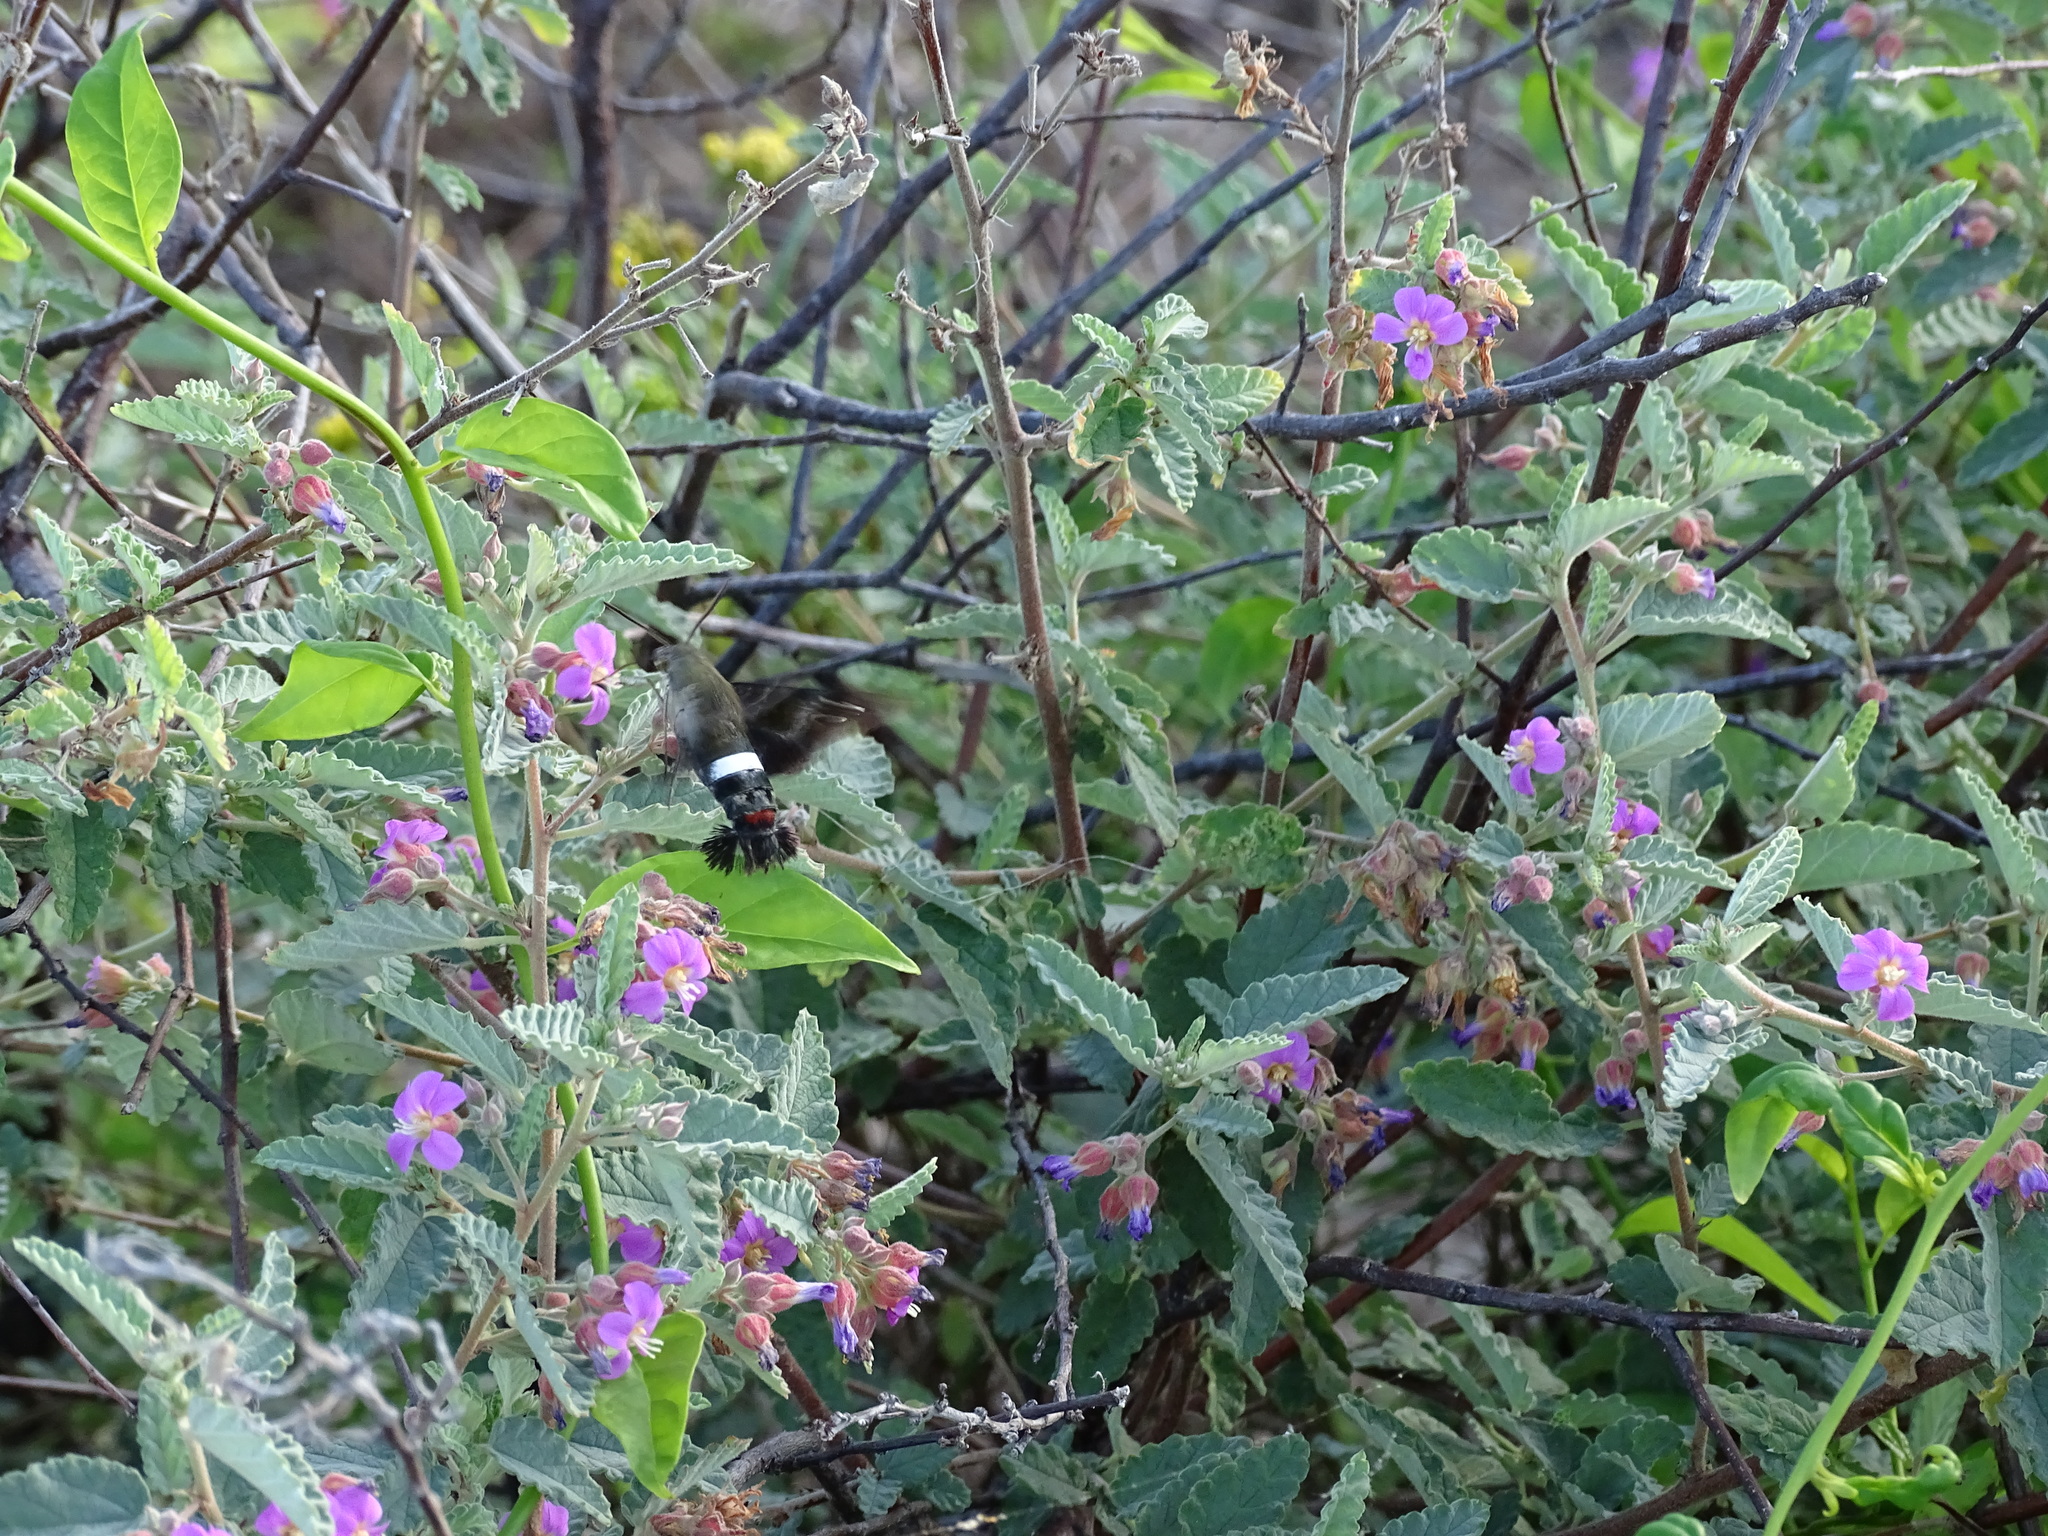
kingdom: Animalia
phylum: Arthropoda
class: Insecta
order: Lepidoptera
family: Sphingidae
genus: Aellopos
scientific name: Aellopos tantalus
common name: Tantalus sphinx
